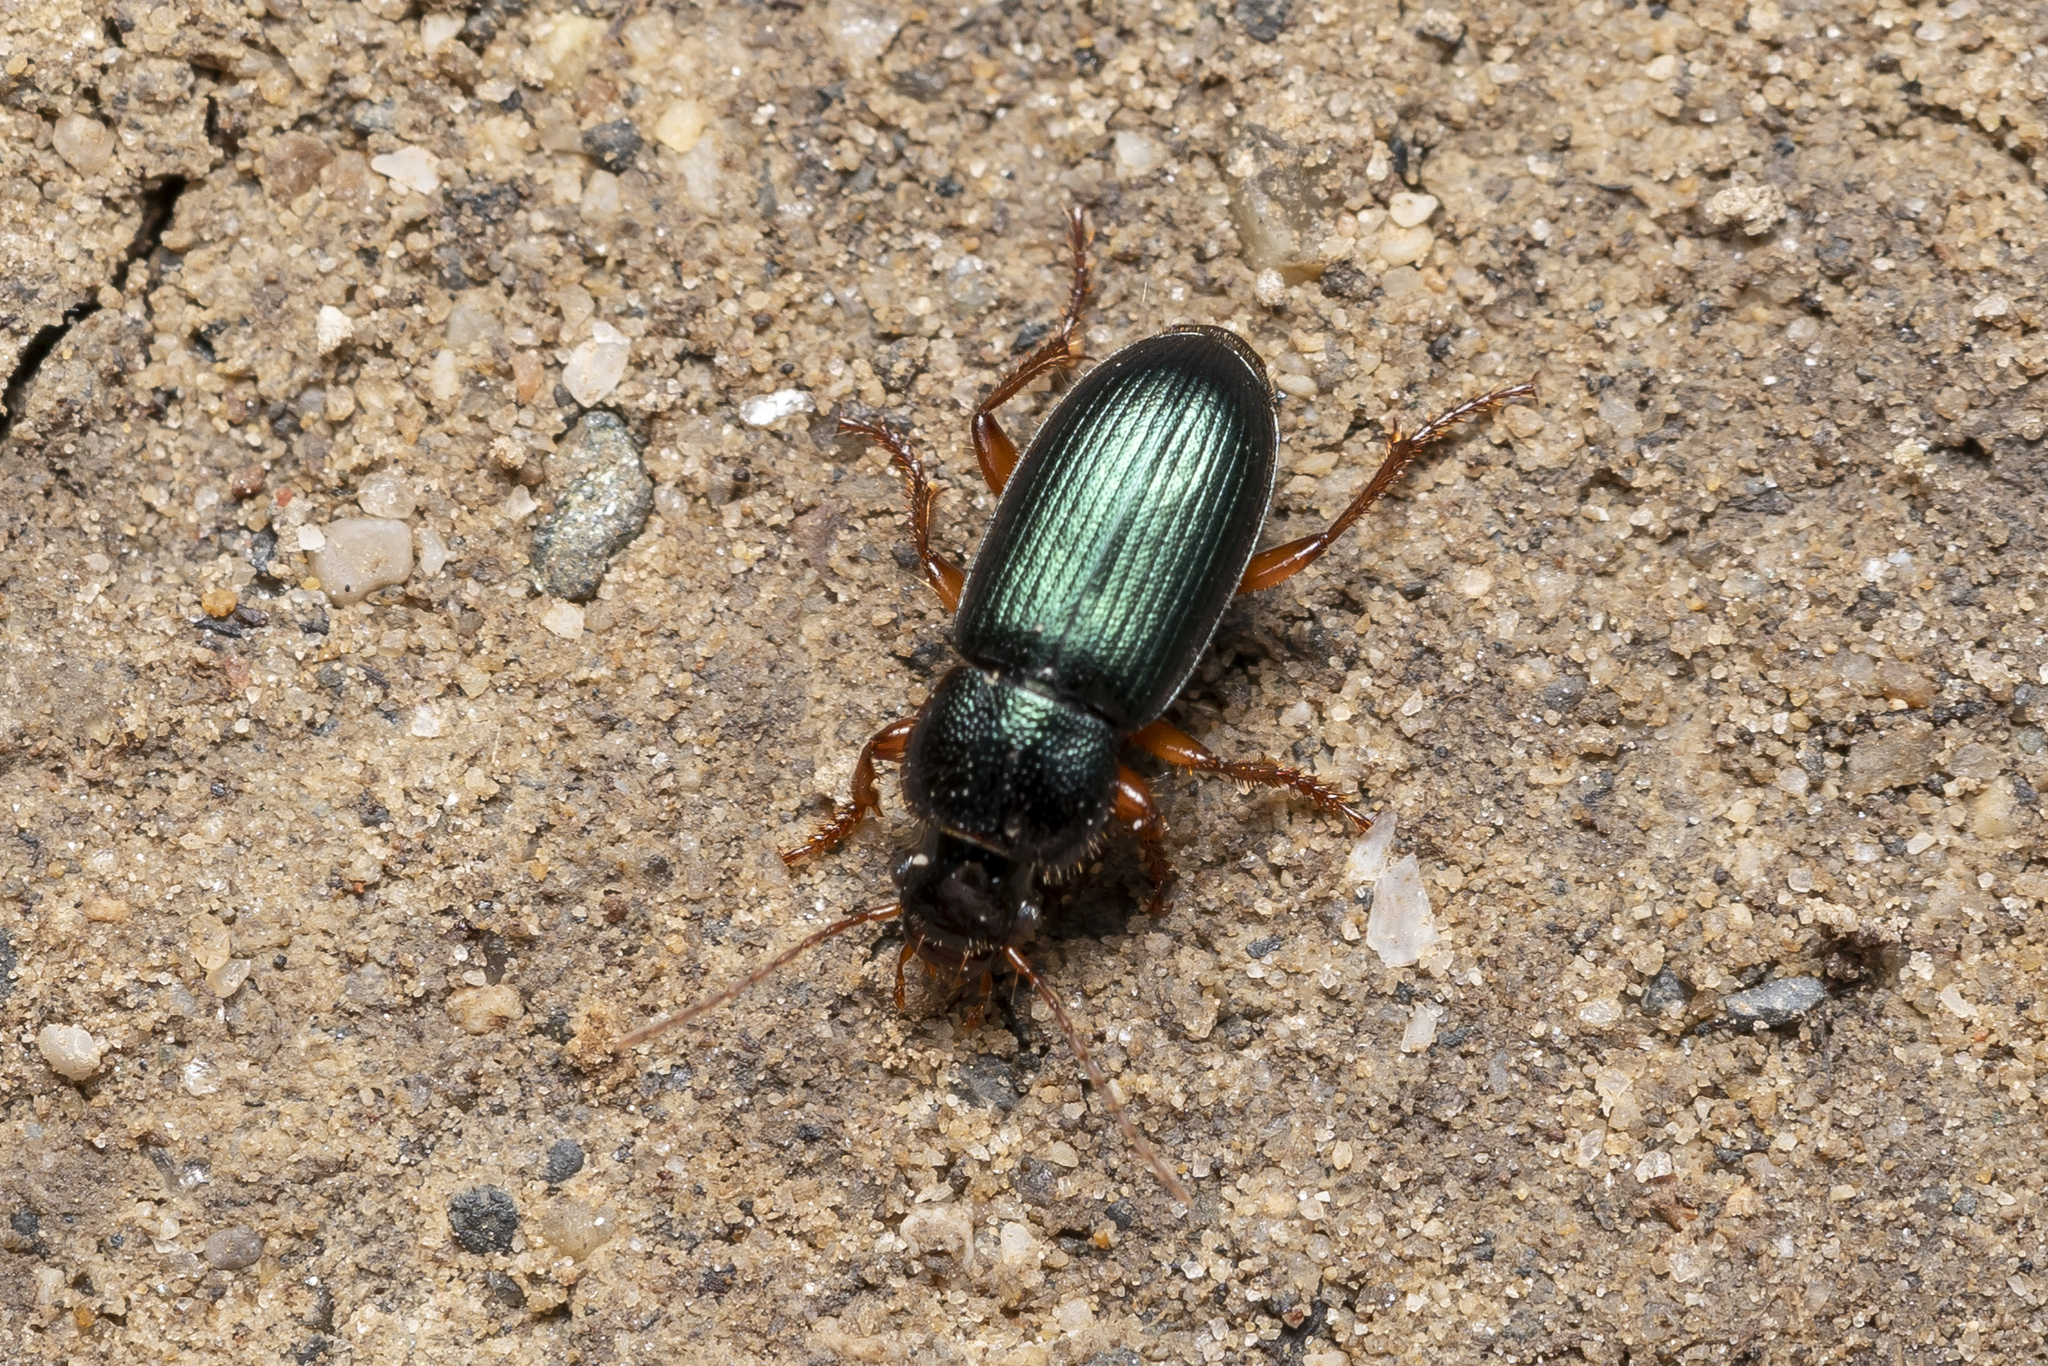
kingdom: Animalia
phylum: Arthropoda
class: Insecta
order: Coleoptera
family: Carabidae
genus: Ophonus
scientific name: Ophonus azureus
